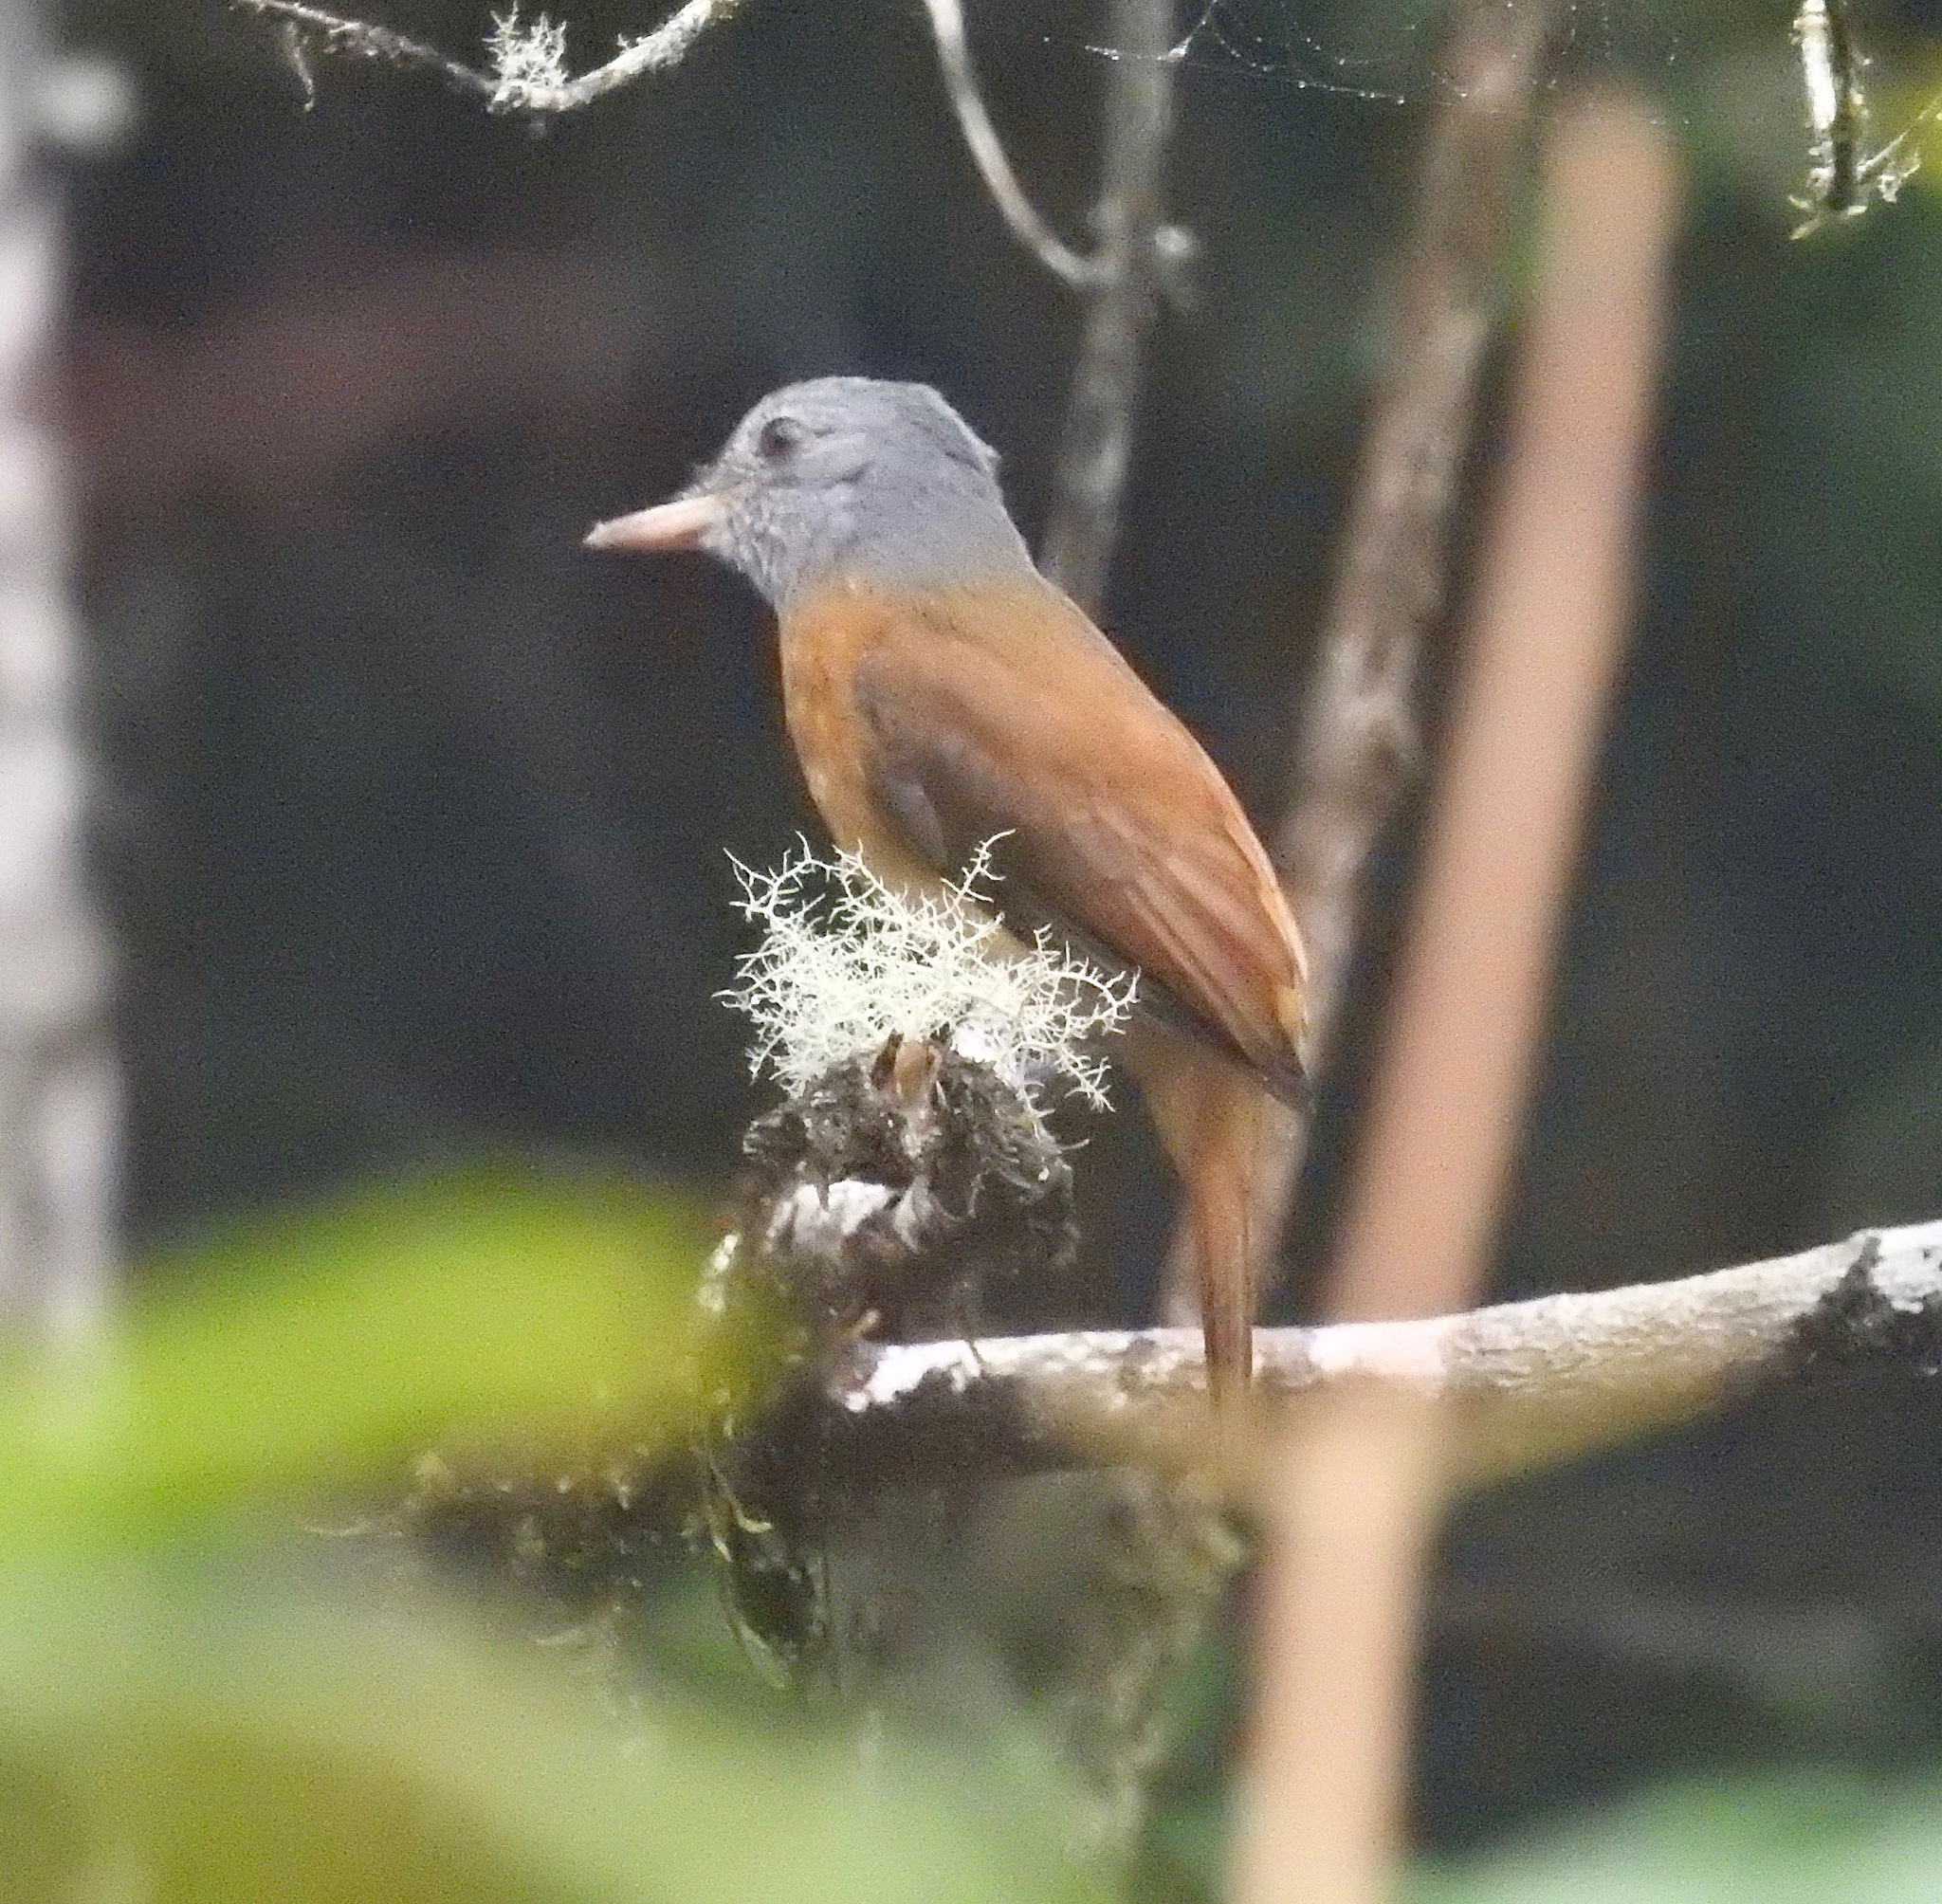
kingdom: Animalia
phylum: Chordata
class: Aves
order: Passeriformes
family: Tyrannidae
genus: Attila
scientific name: Attila rufus
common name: Grey-hooded attila
